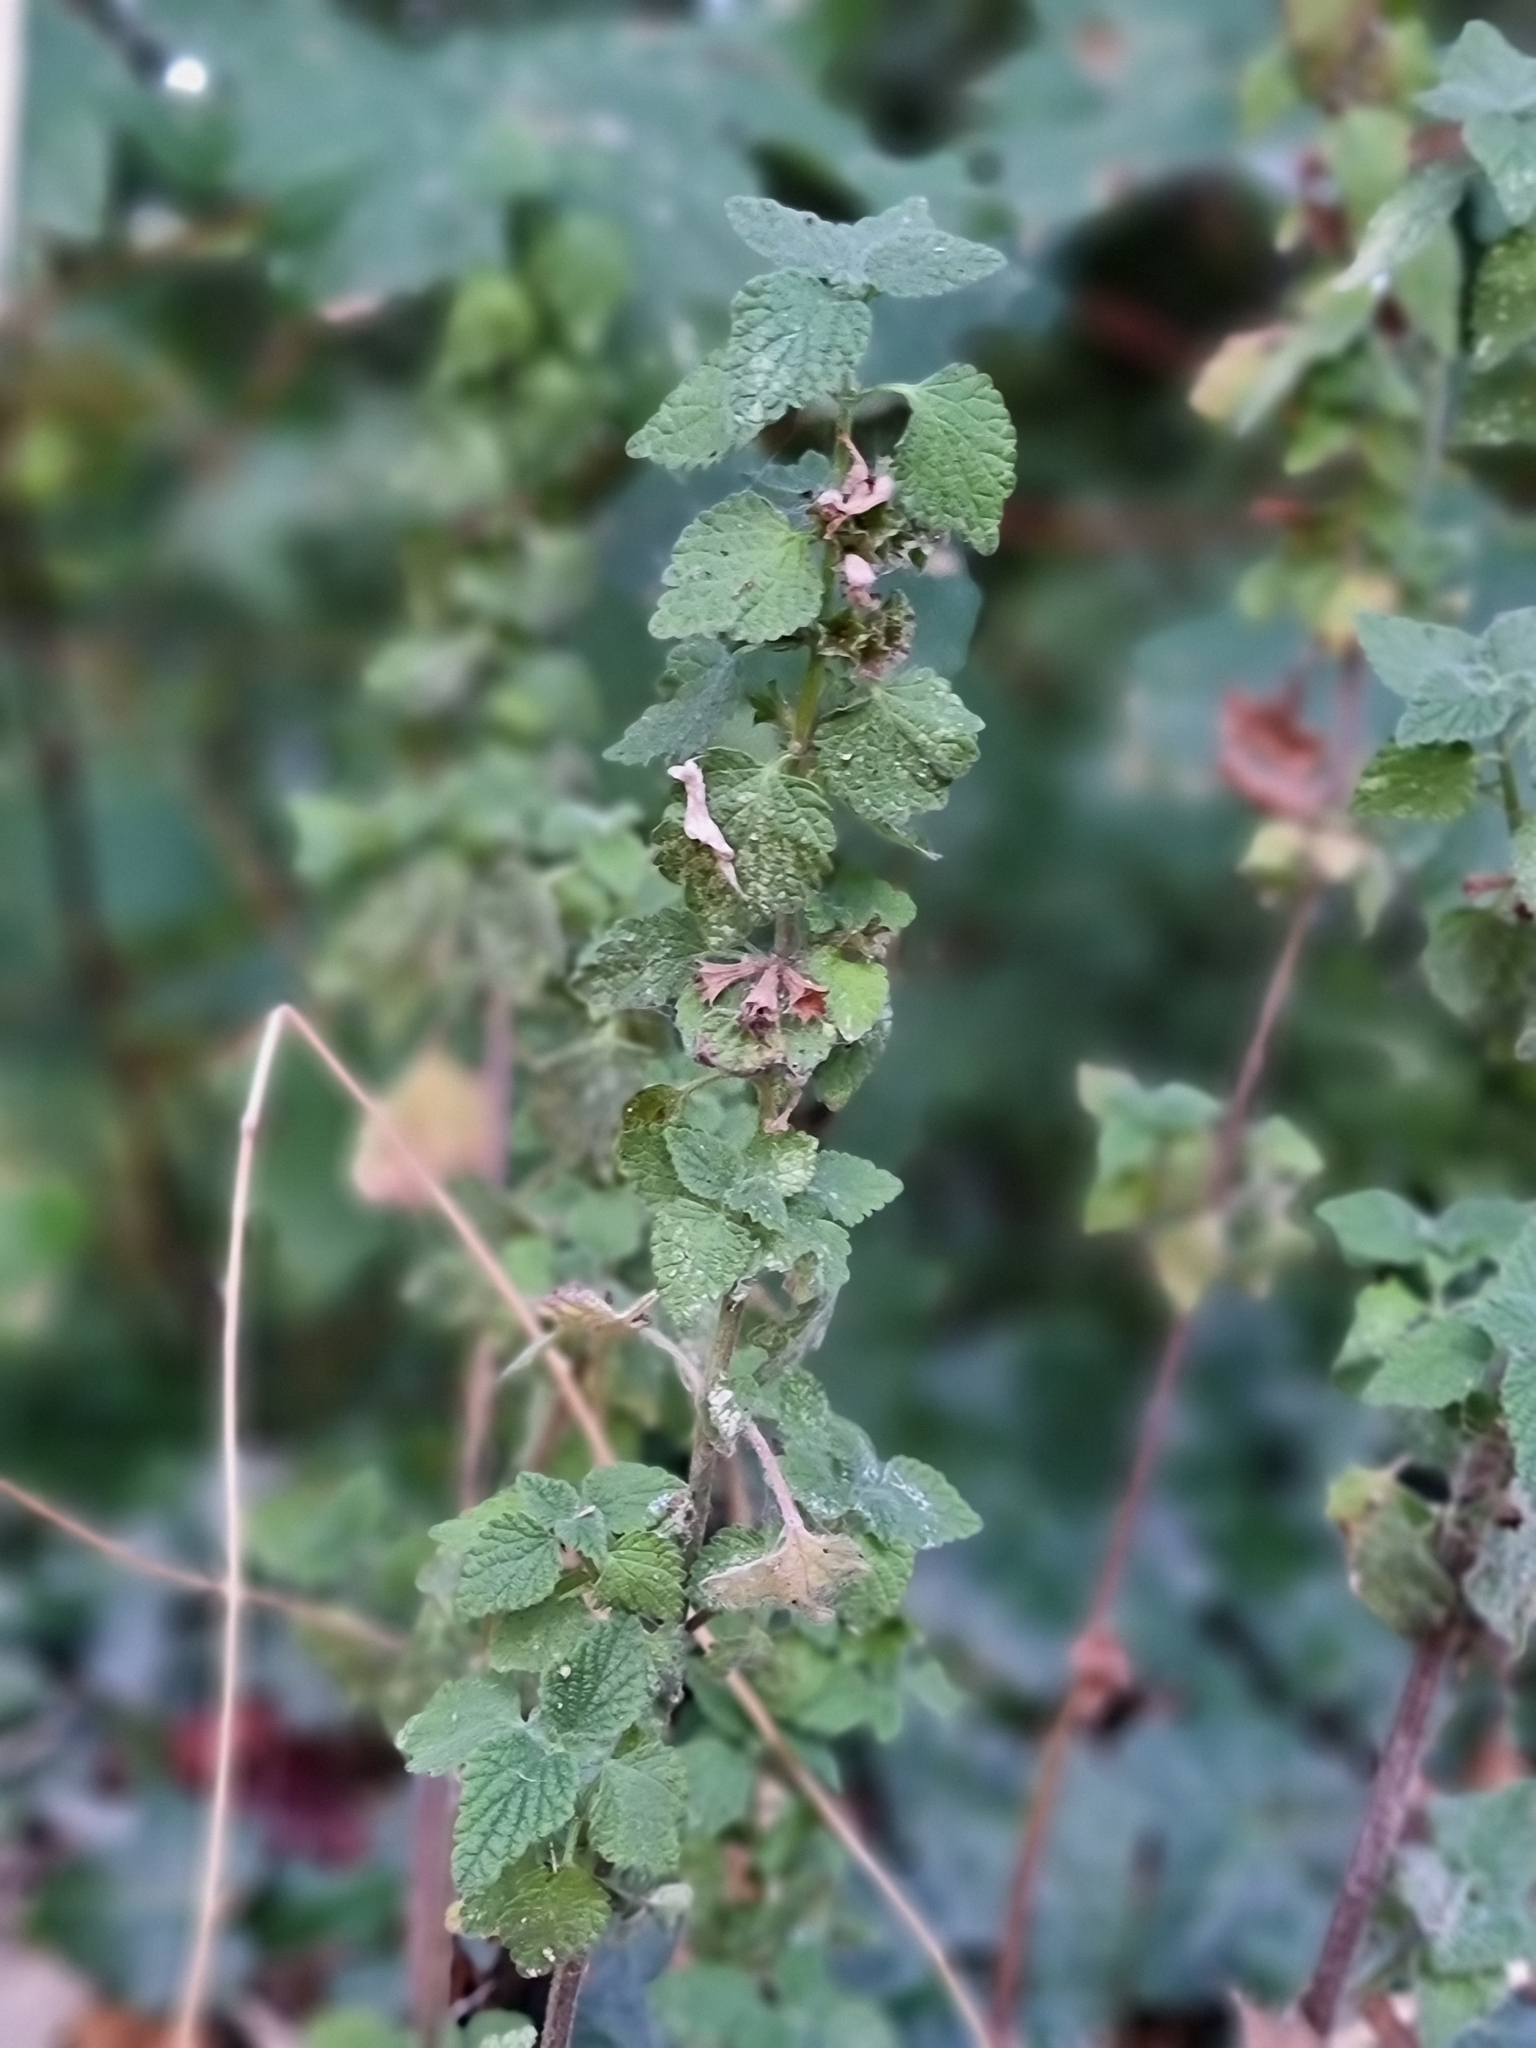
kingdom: Plantae
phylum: Tracheophyta
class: Magnoliopsida
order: Lamiales
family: Lamiaceae
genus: Ballota
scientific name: Ballota nigra
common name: Black horehound
